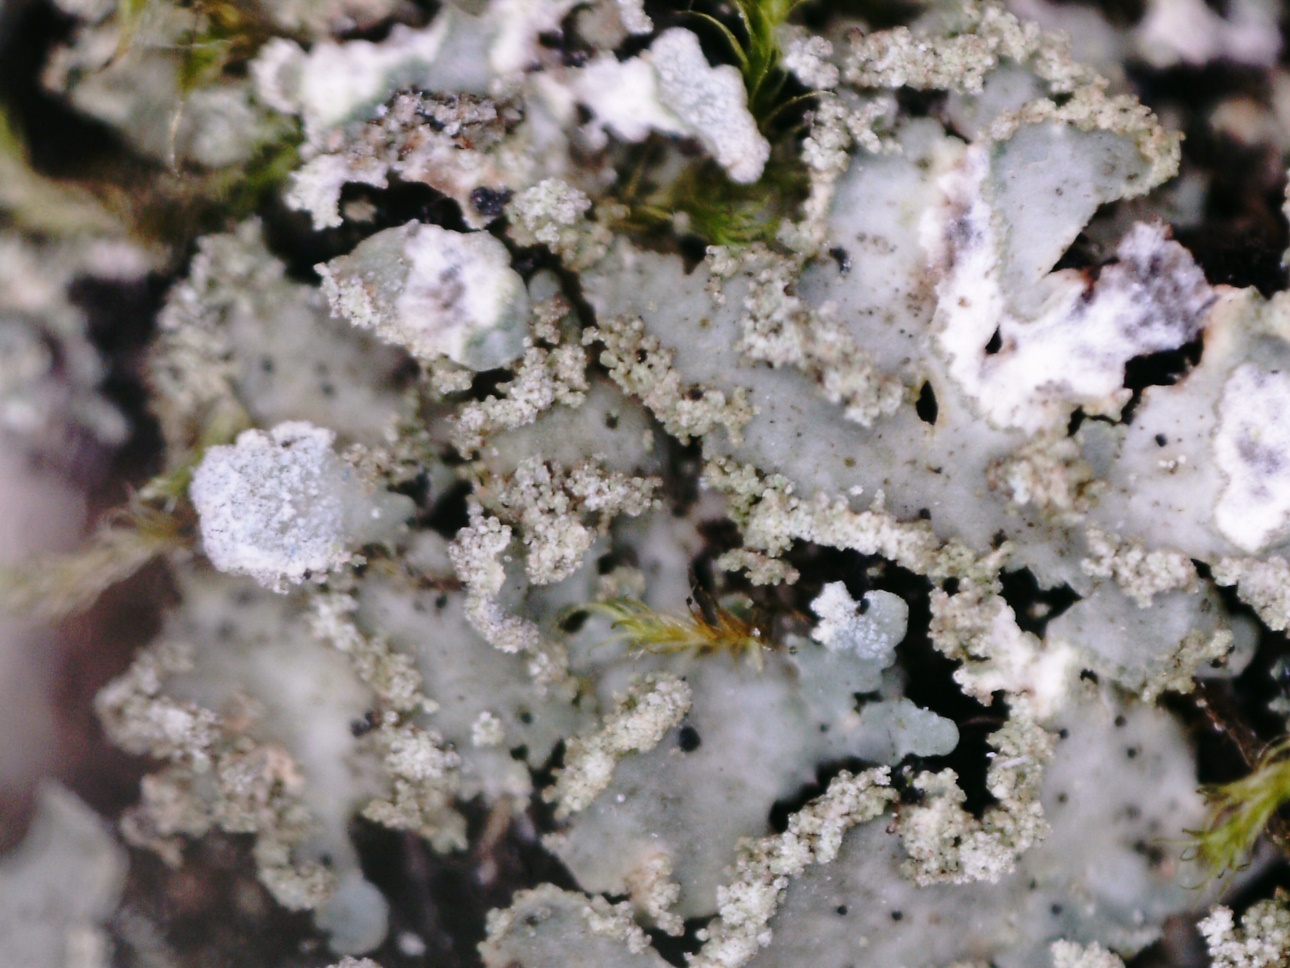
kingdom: Fungi
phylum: Ascomycota
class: Lecanoromycetes
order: Caliciales
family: Physciaceae
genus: Physconia
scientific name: Physconia enteroxantha
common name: Yellow-edged frost lichen
